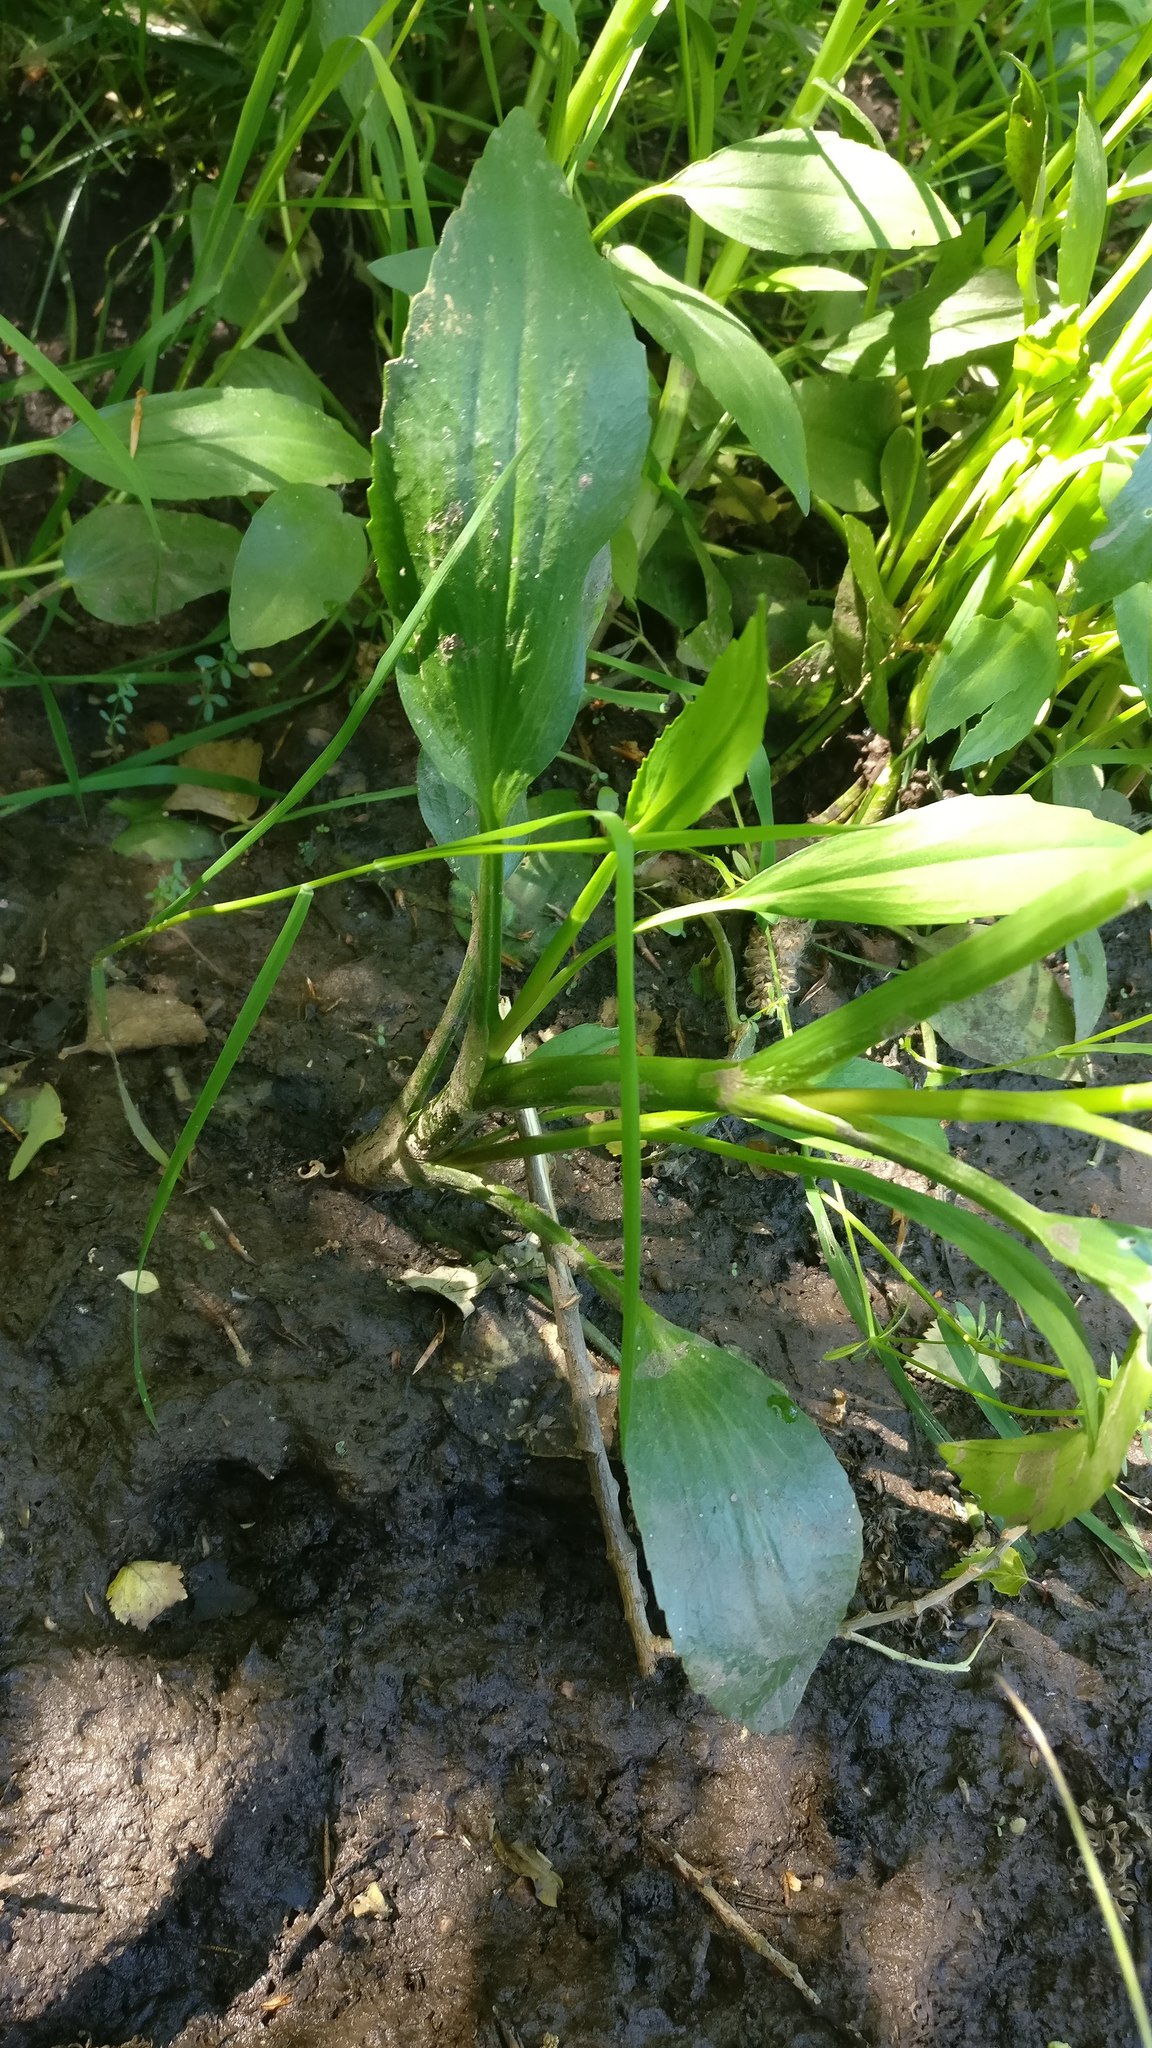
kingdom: Plantae
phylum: Tracheophyta
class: Magnoliopsida
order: Ranunculales
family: Ranunculaceae
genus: Ranunculus
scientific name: Ranunculus flammula
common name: Lesser spearwort
